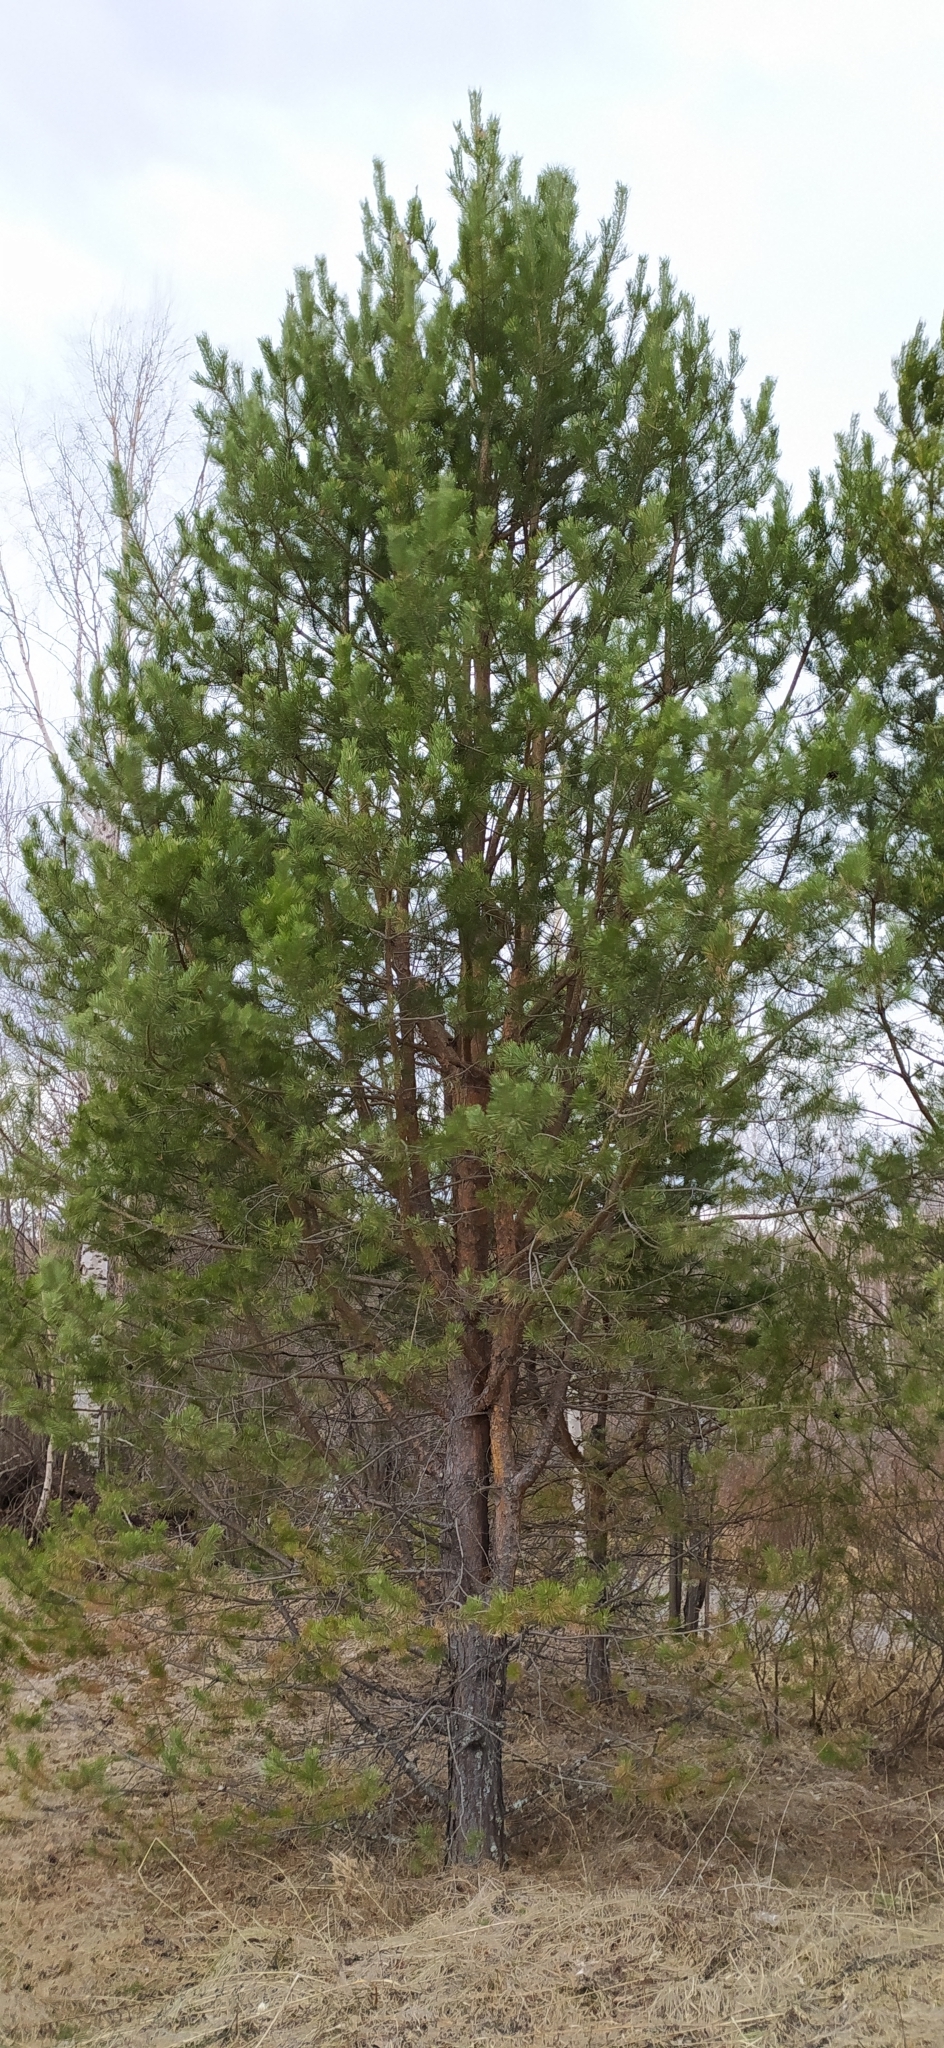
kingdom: Plantae
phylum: Tracheophyta
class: Pinopsida
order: Pinales
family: Pinaceae
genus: Pinus
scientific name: Pinus sylvestris
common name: Scots pine
